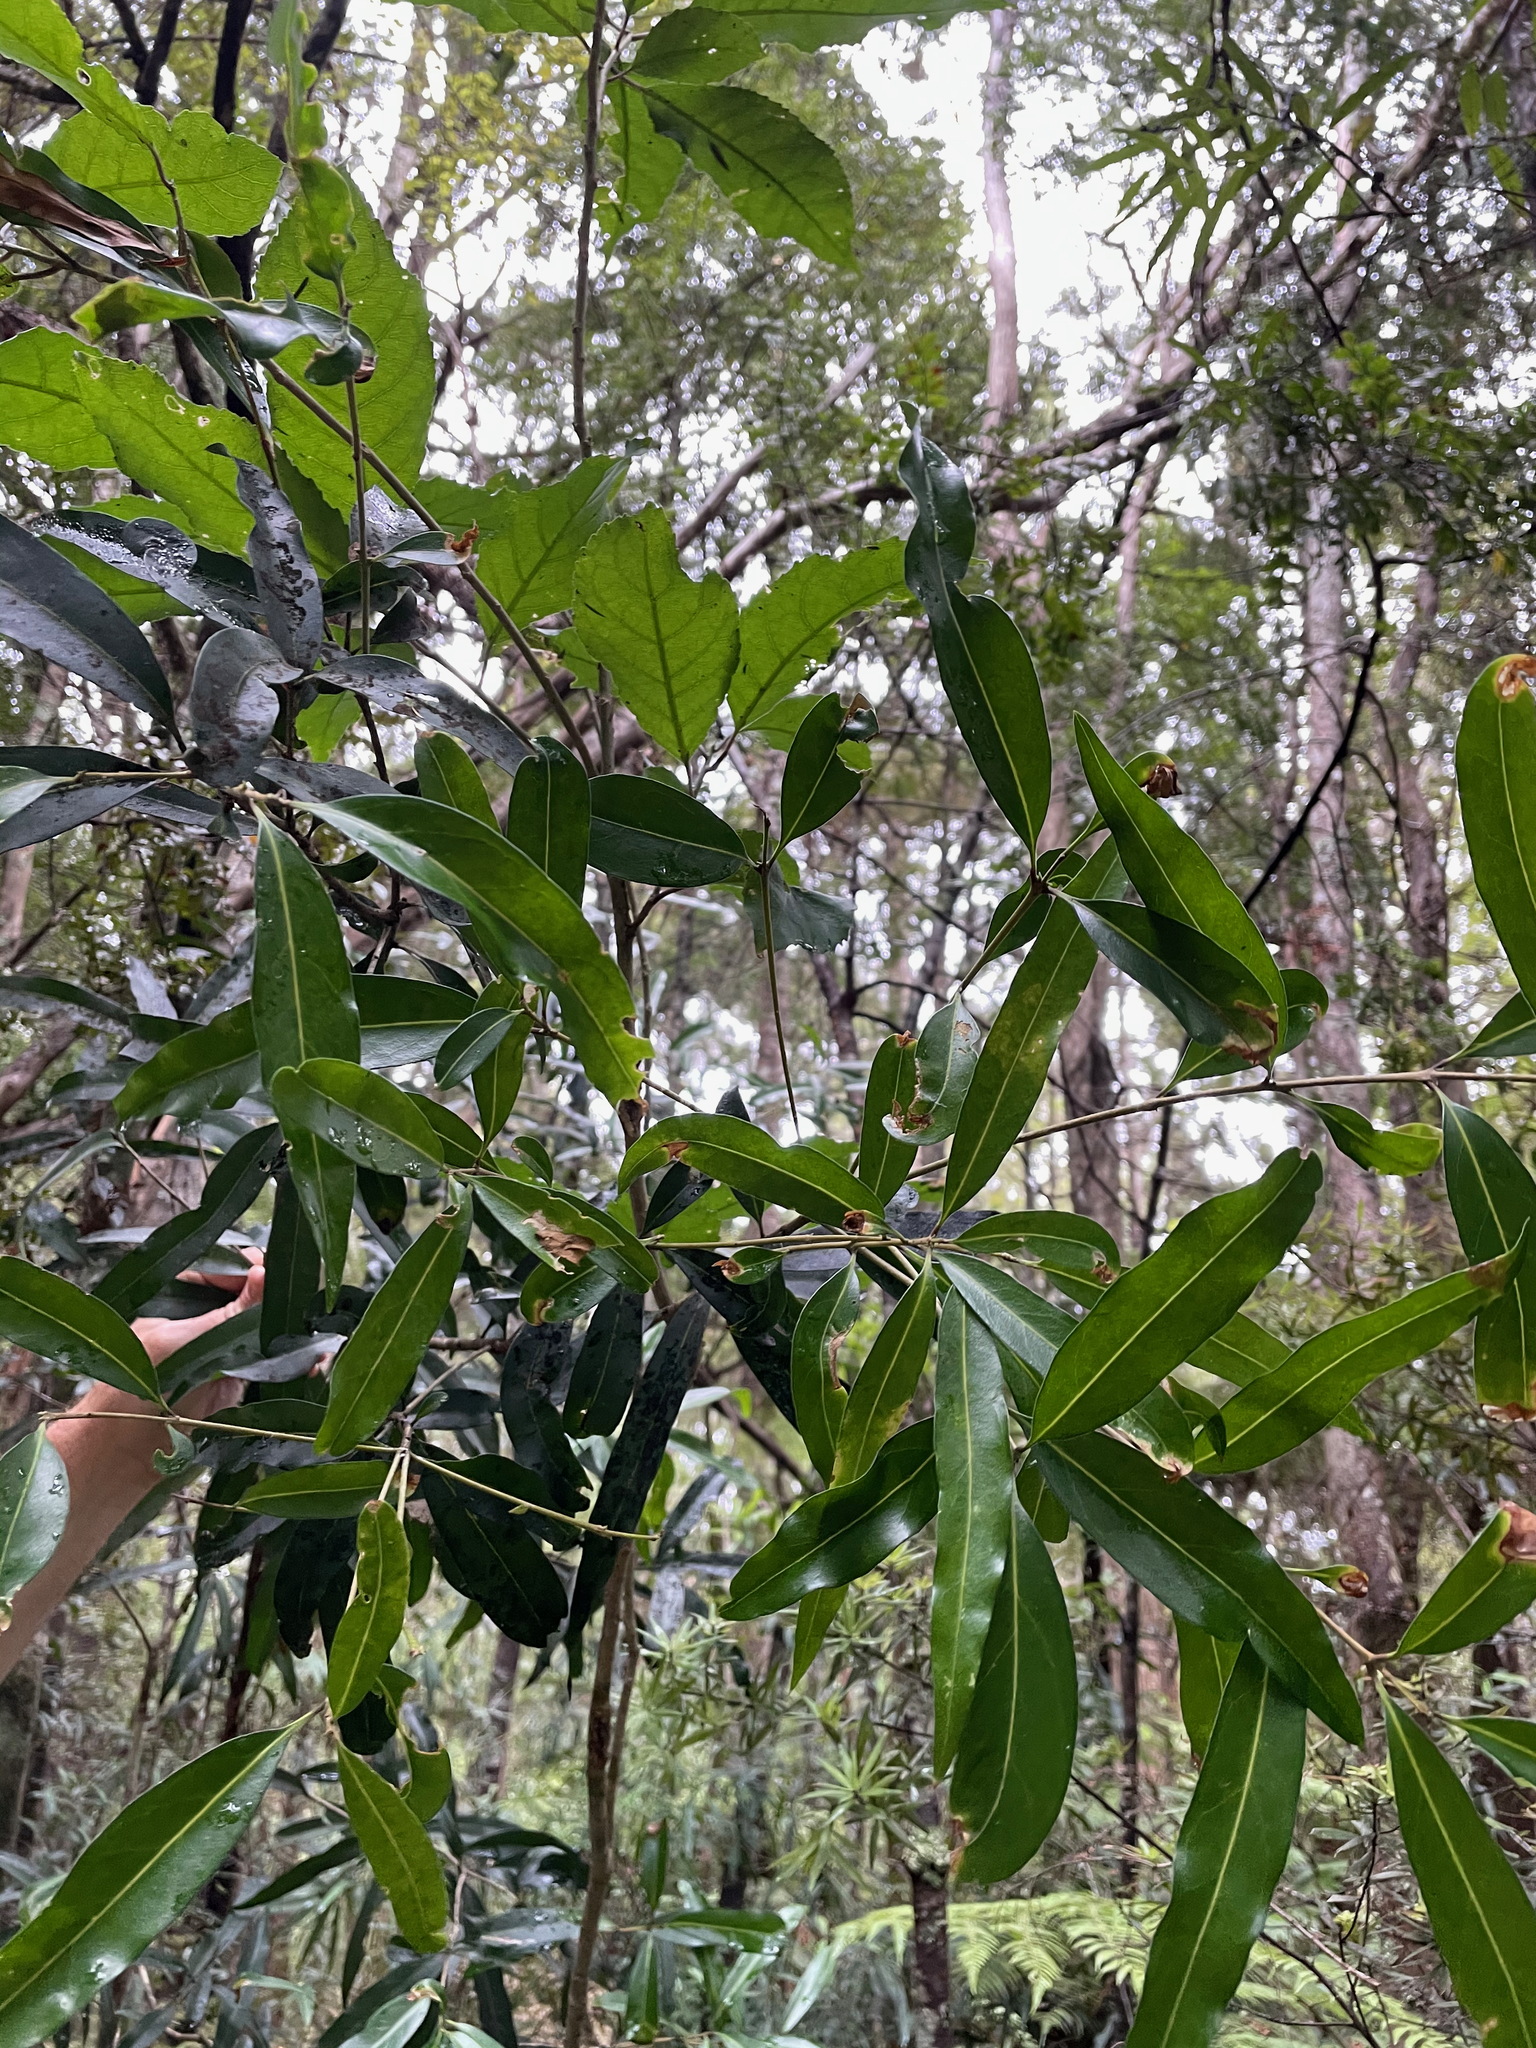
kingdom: Plantae
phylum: Tracheophyta
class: Magnoliopsida
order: Lamiales
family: Oleaceae
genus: Nestegis
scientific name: Nestegis lanceolata
